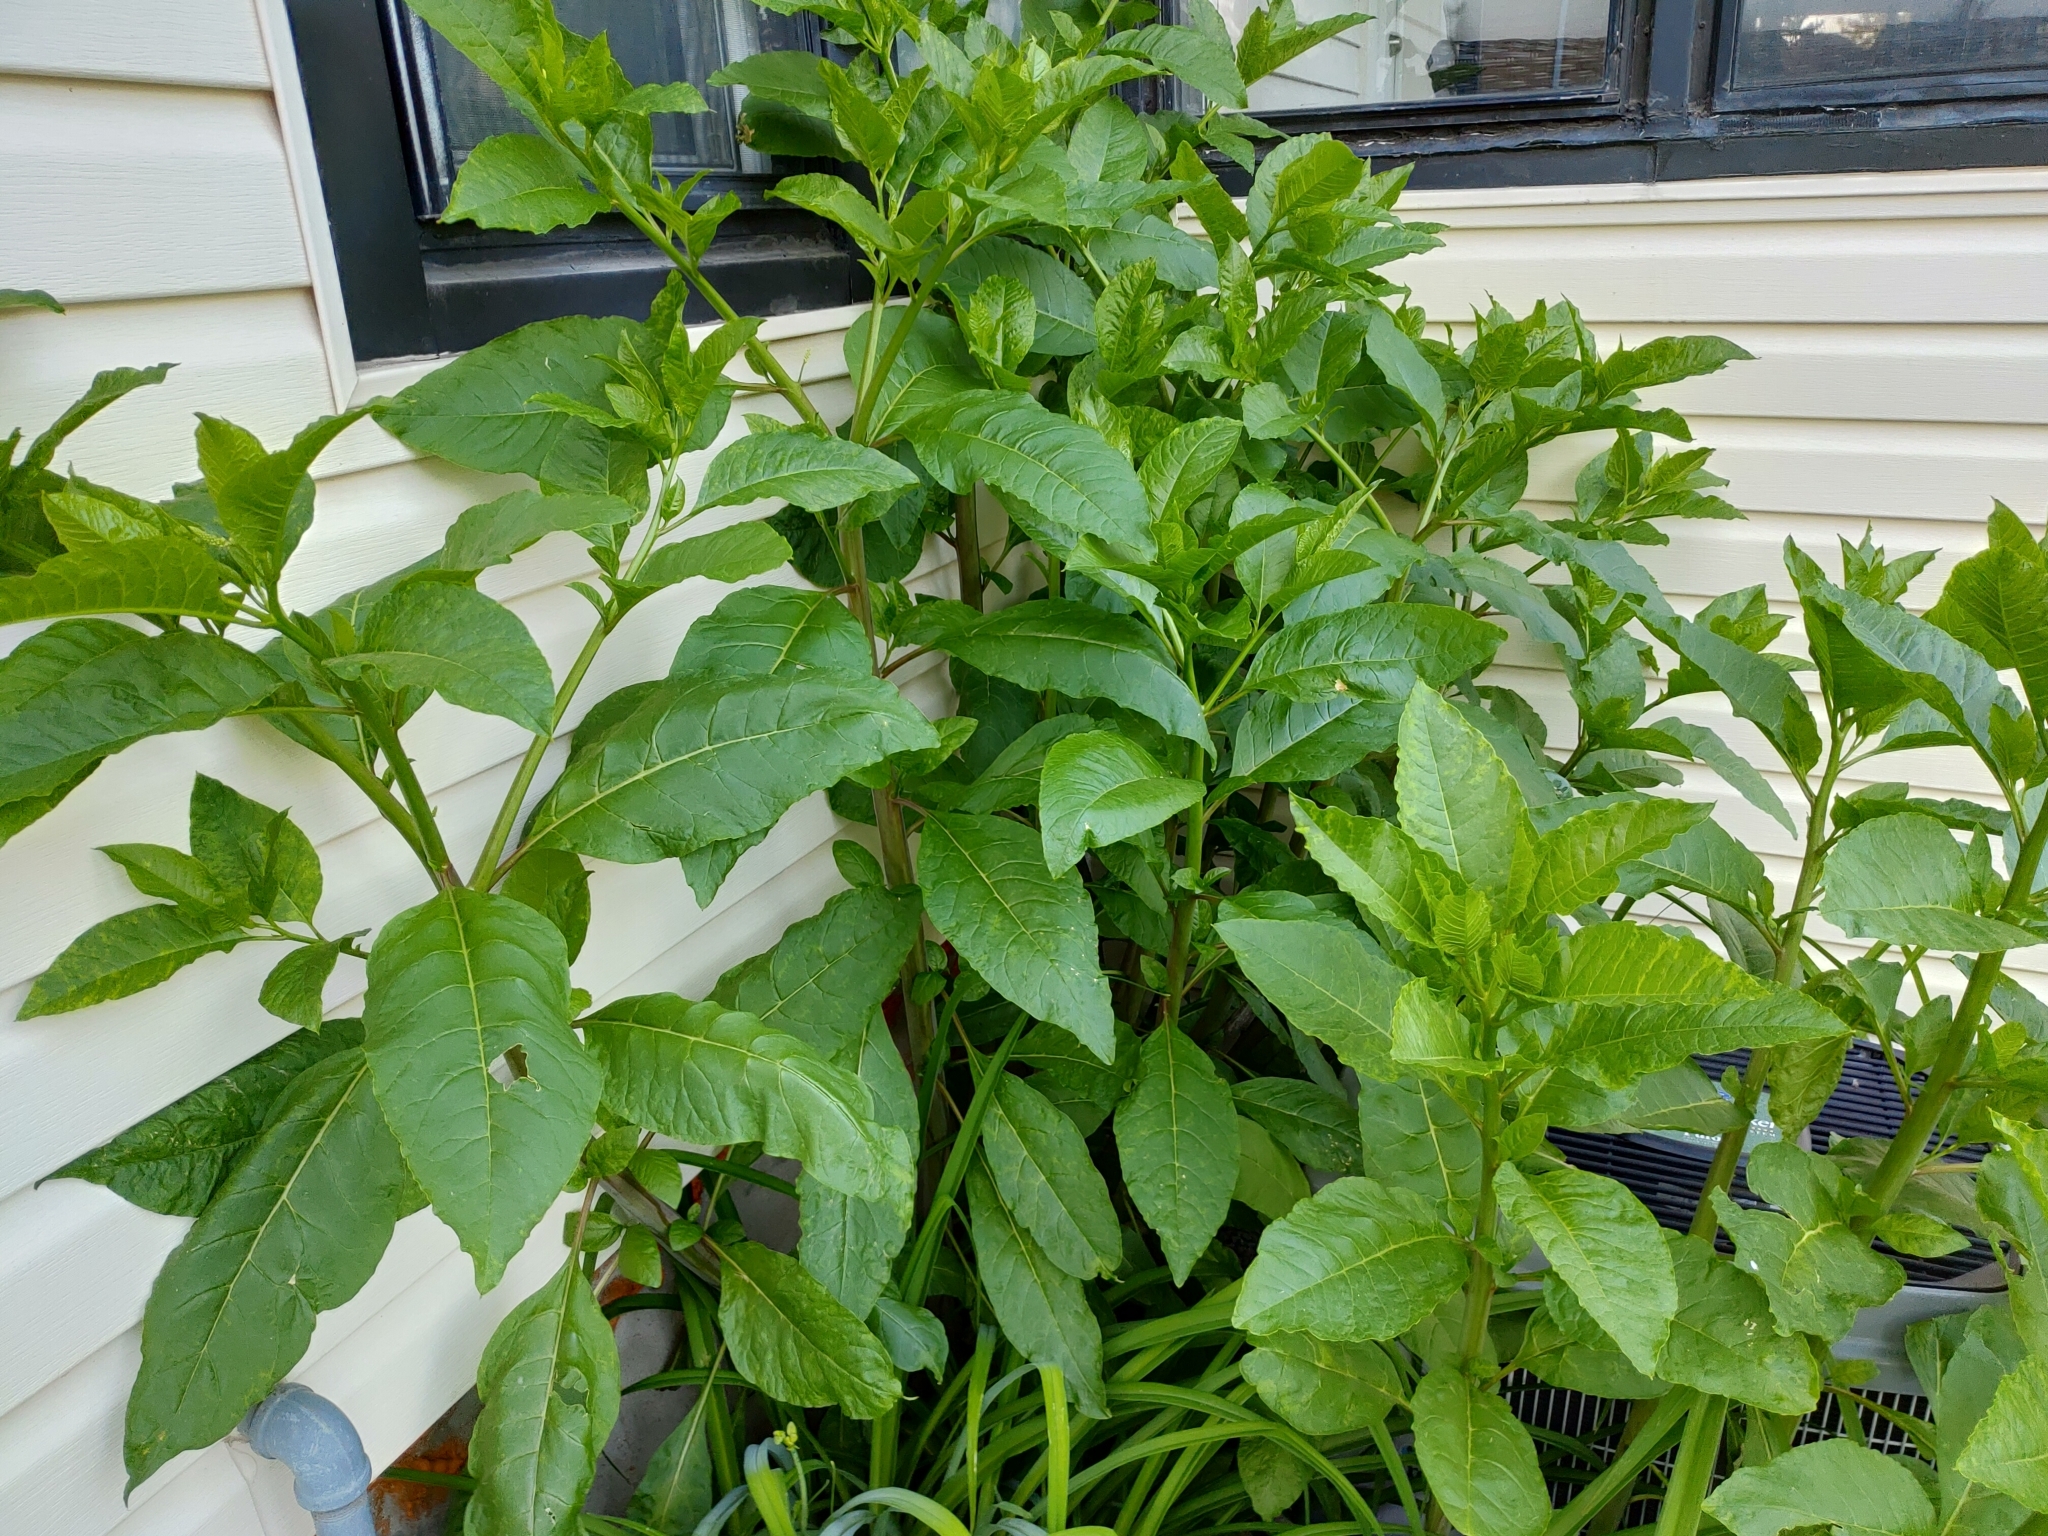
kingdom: Plantae
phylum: Tracheophyta
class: Magnoliopsida
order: Caryophyllales
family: Phytolaccaceae
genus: Phytolacca
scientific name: Phytolacca americana
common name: American pokeweed
